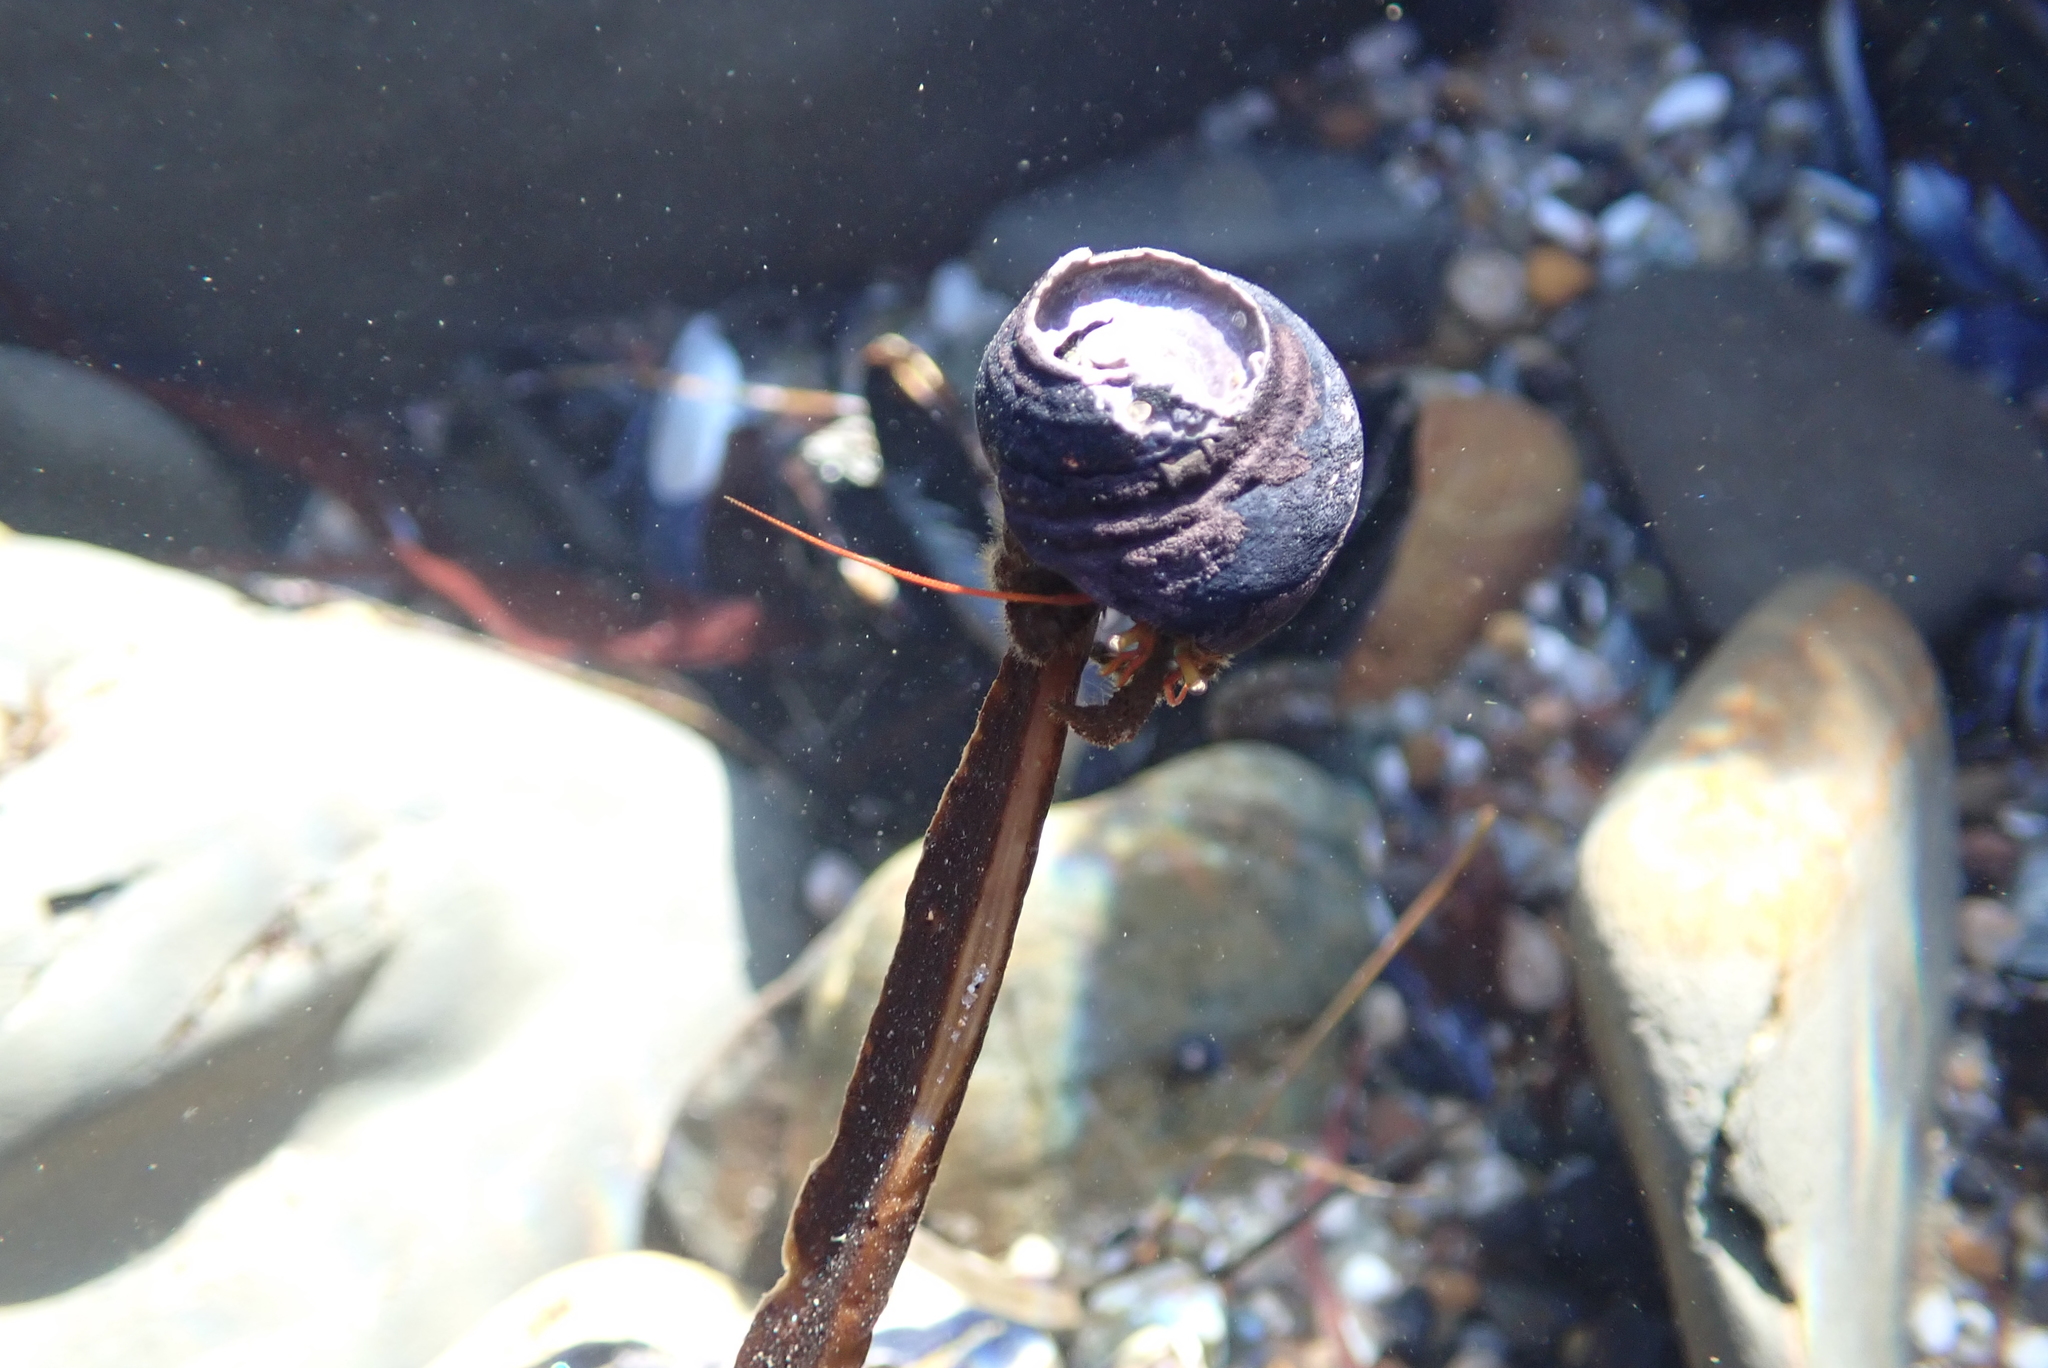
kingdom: Animalia
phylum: Arthropoda
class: Malacostraca
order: Decapoda
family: Paguridae
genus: Pagurus
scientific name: Pagurus samuelis
